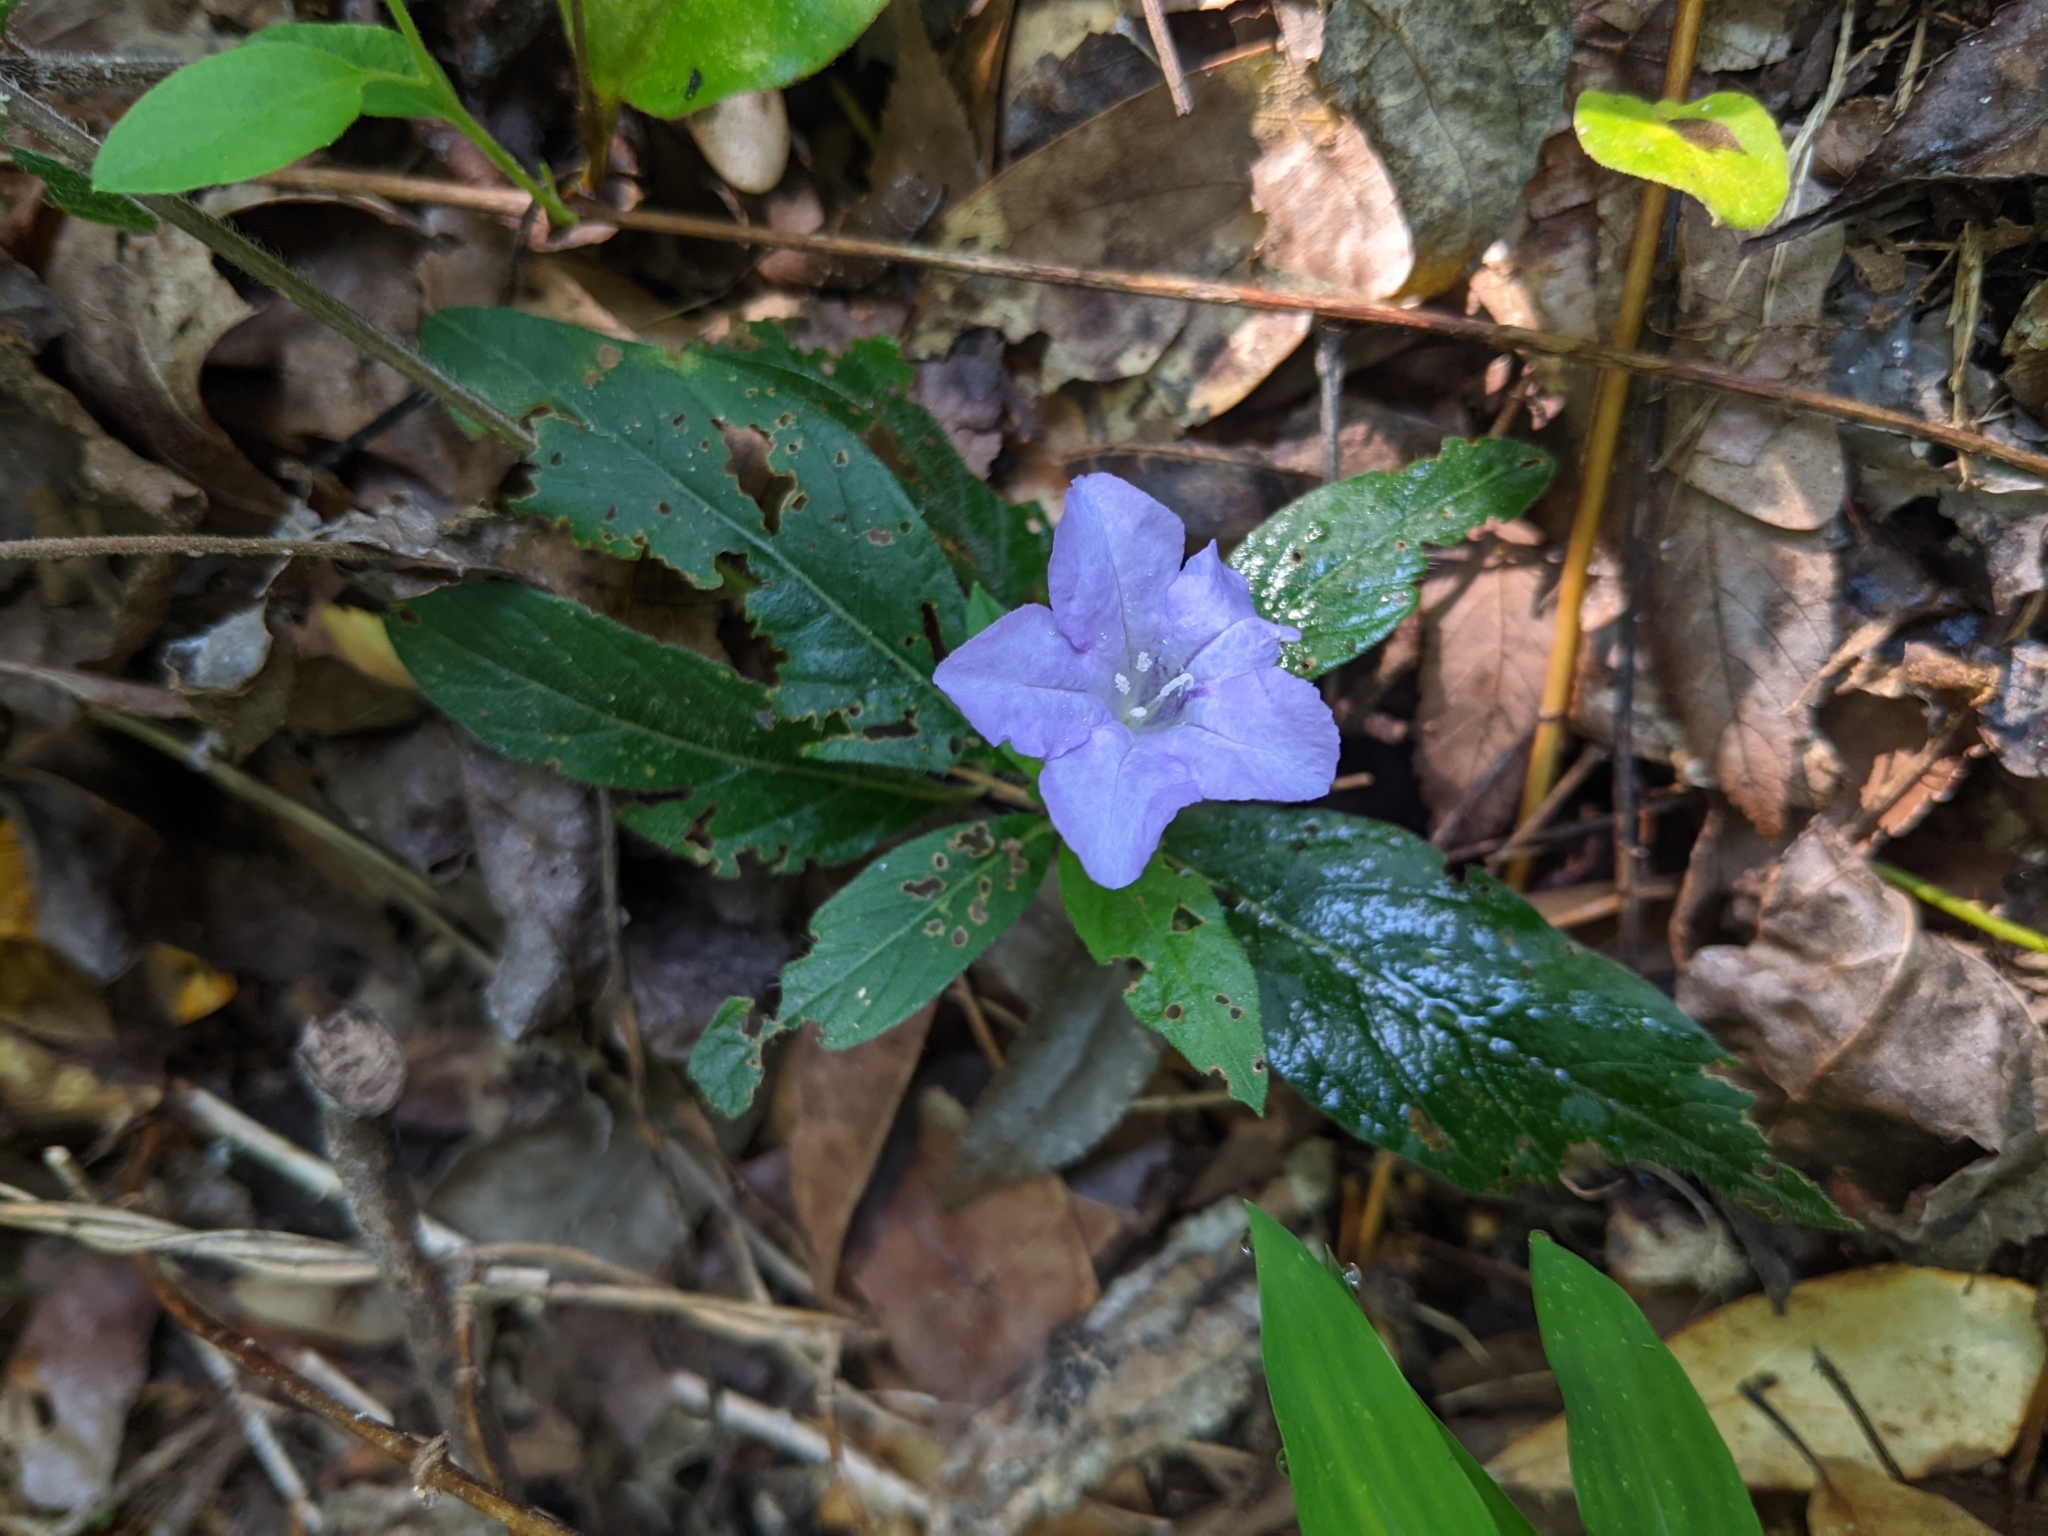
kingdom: Plantae
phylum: Tracheophyta
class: Magnoliopsida
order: Lamiales
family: Acanthaceae
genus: Ruellia
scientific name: Ruellia caroliniensis
